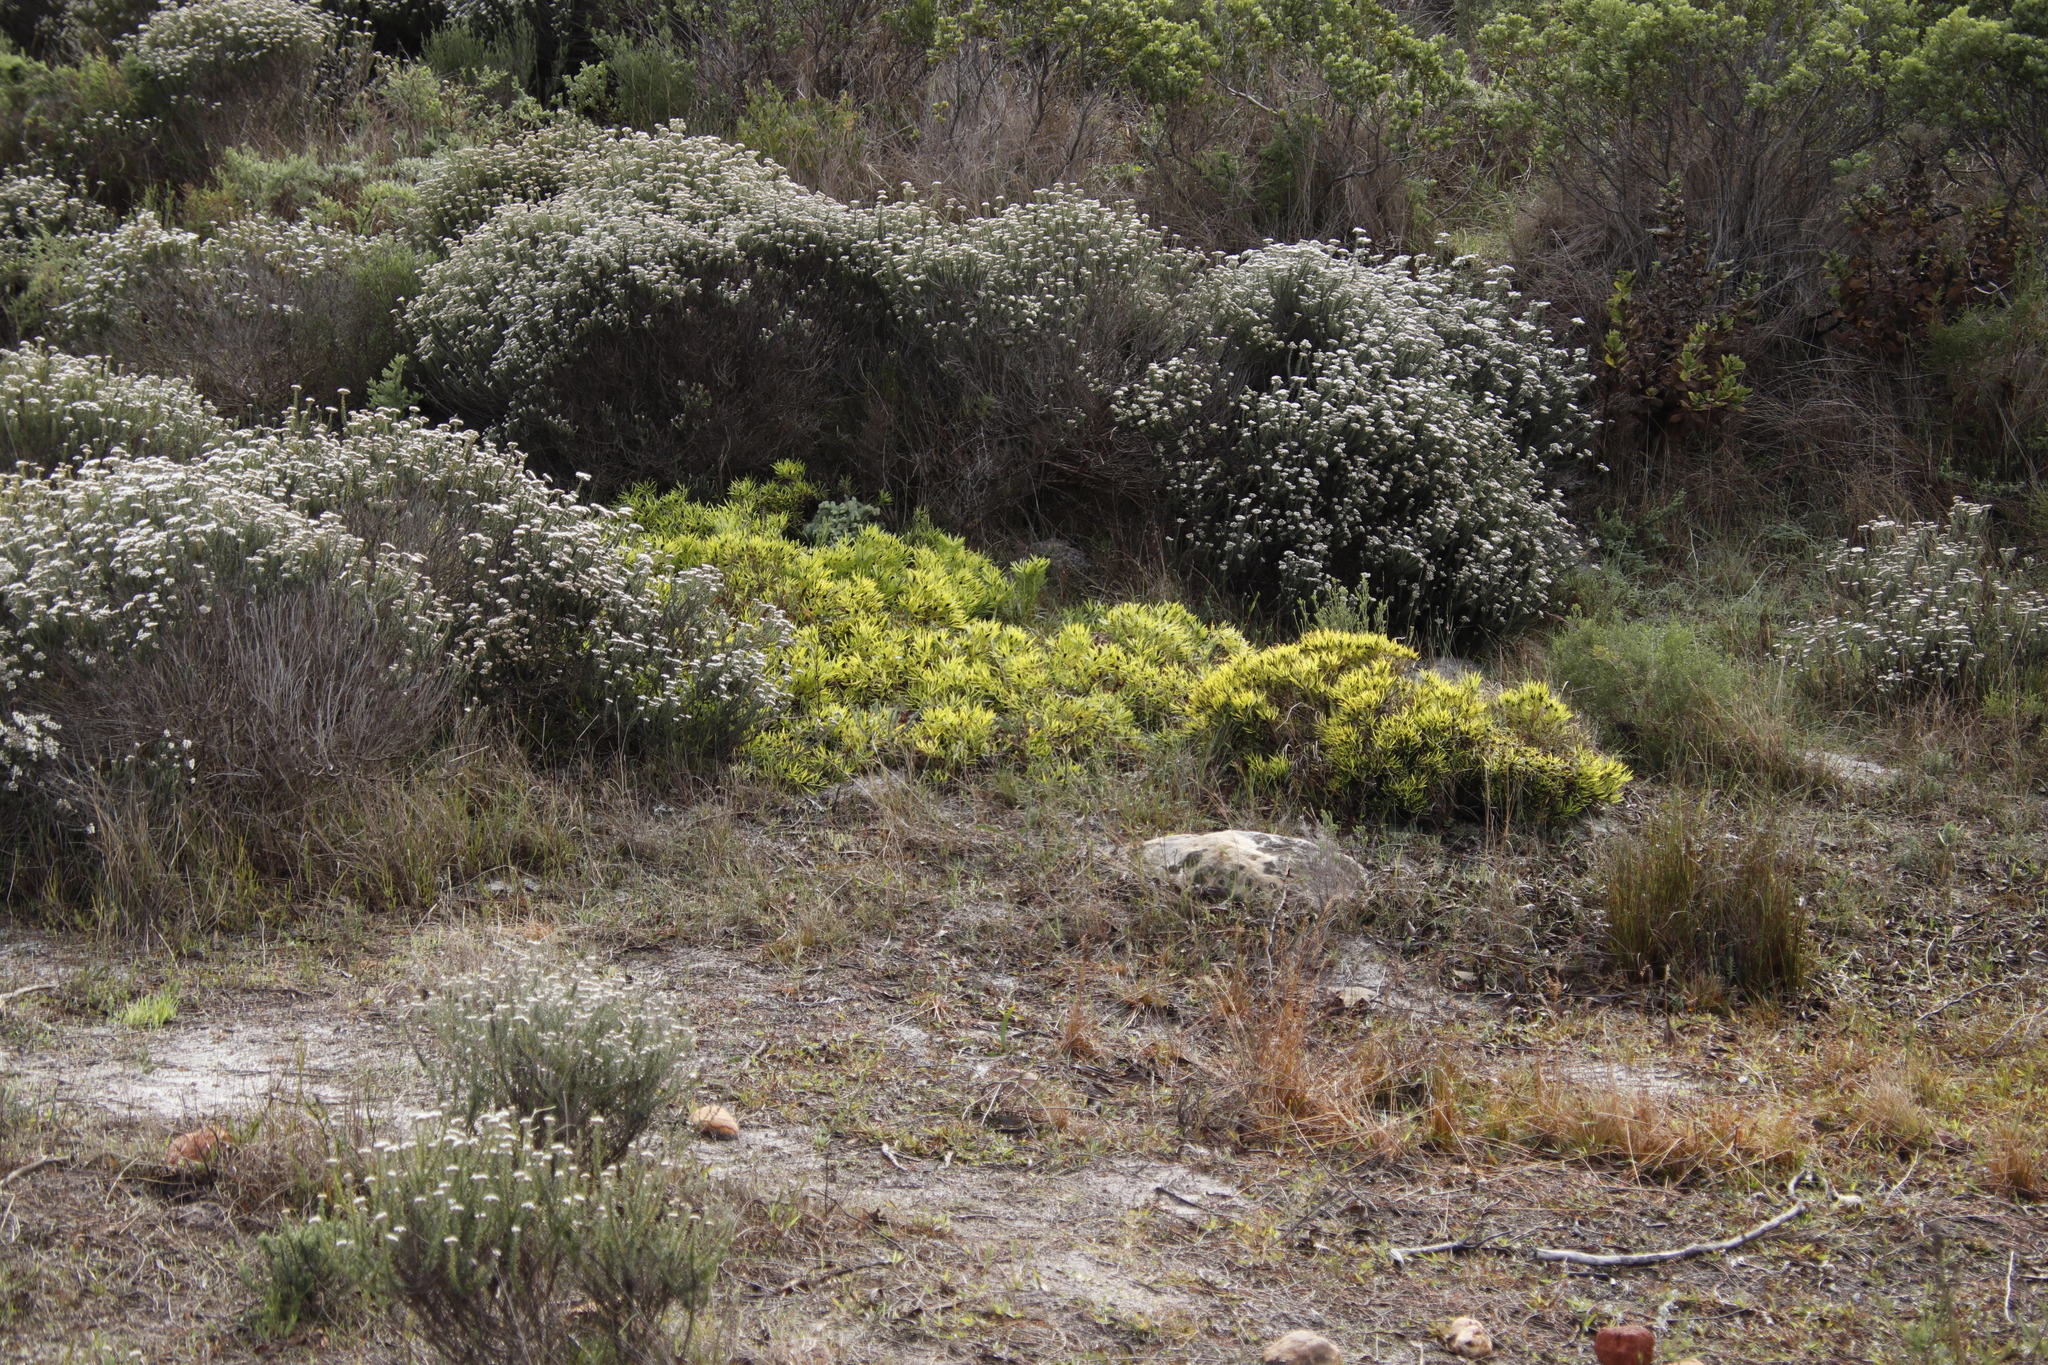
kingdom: Plantae
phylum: Tracheophyta
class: Magnoliopsida
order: Proteales
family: Proteaceae
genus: Leucadendron
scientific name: Leucadendron salignum
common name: Common sunshine conebush
